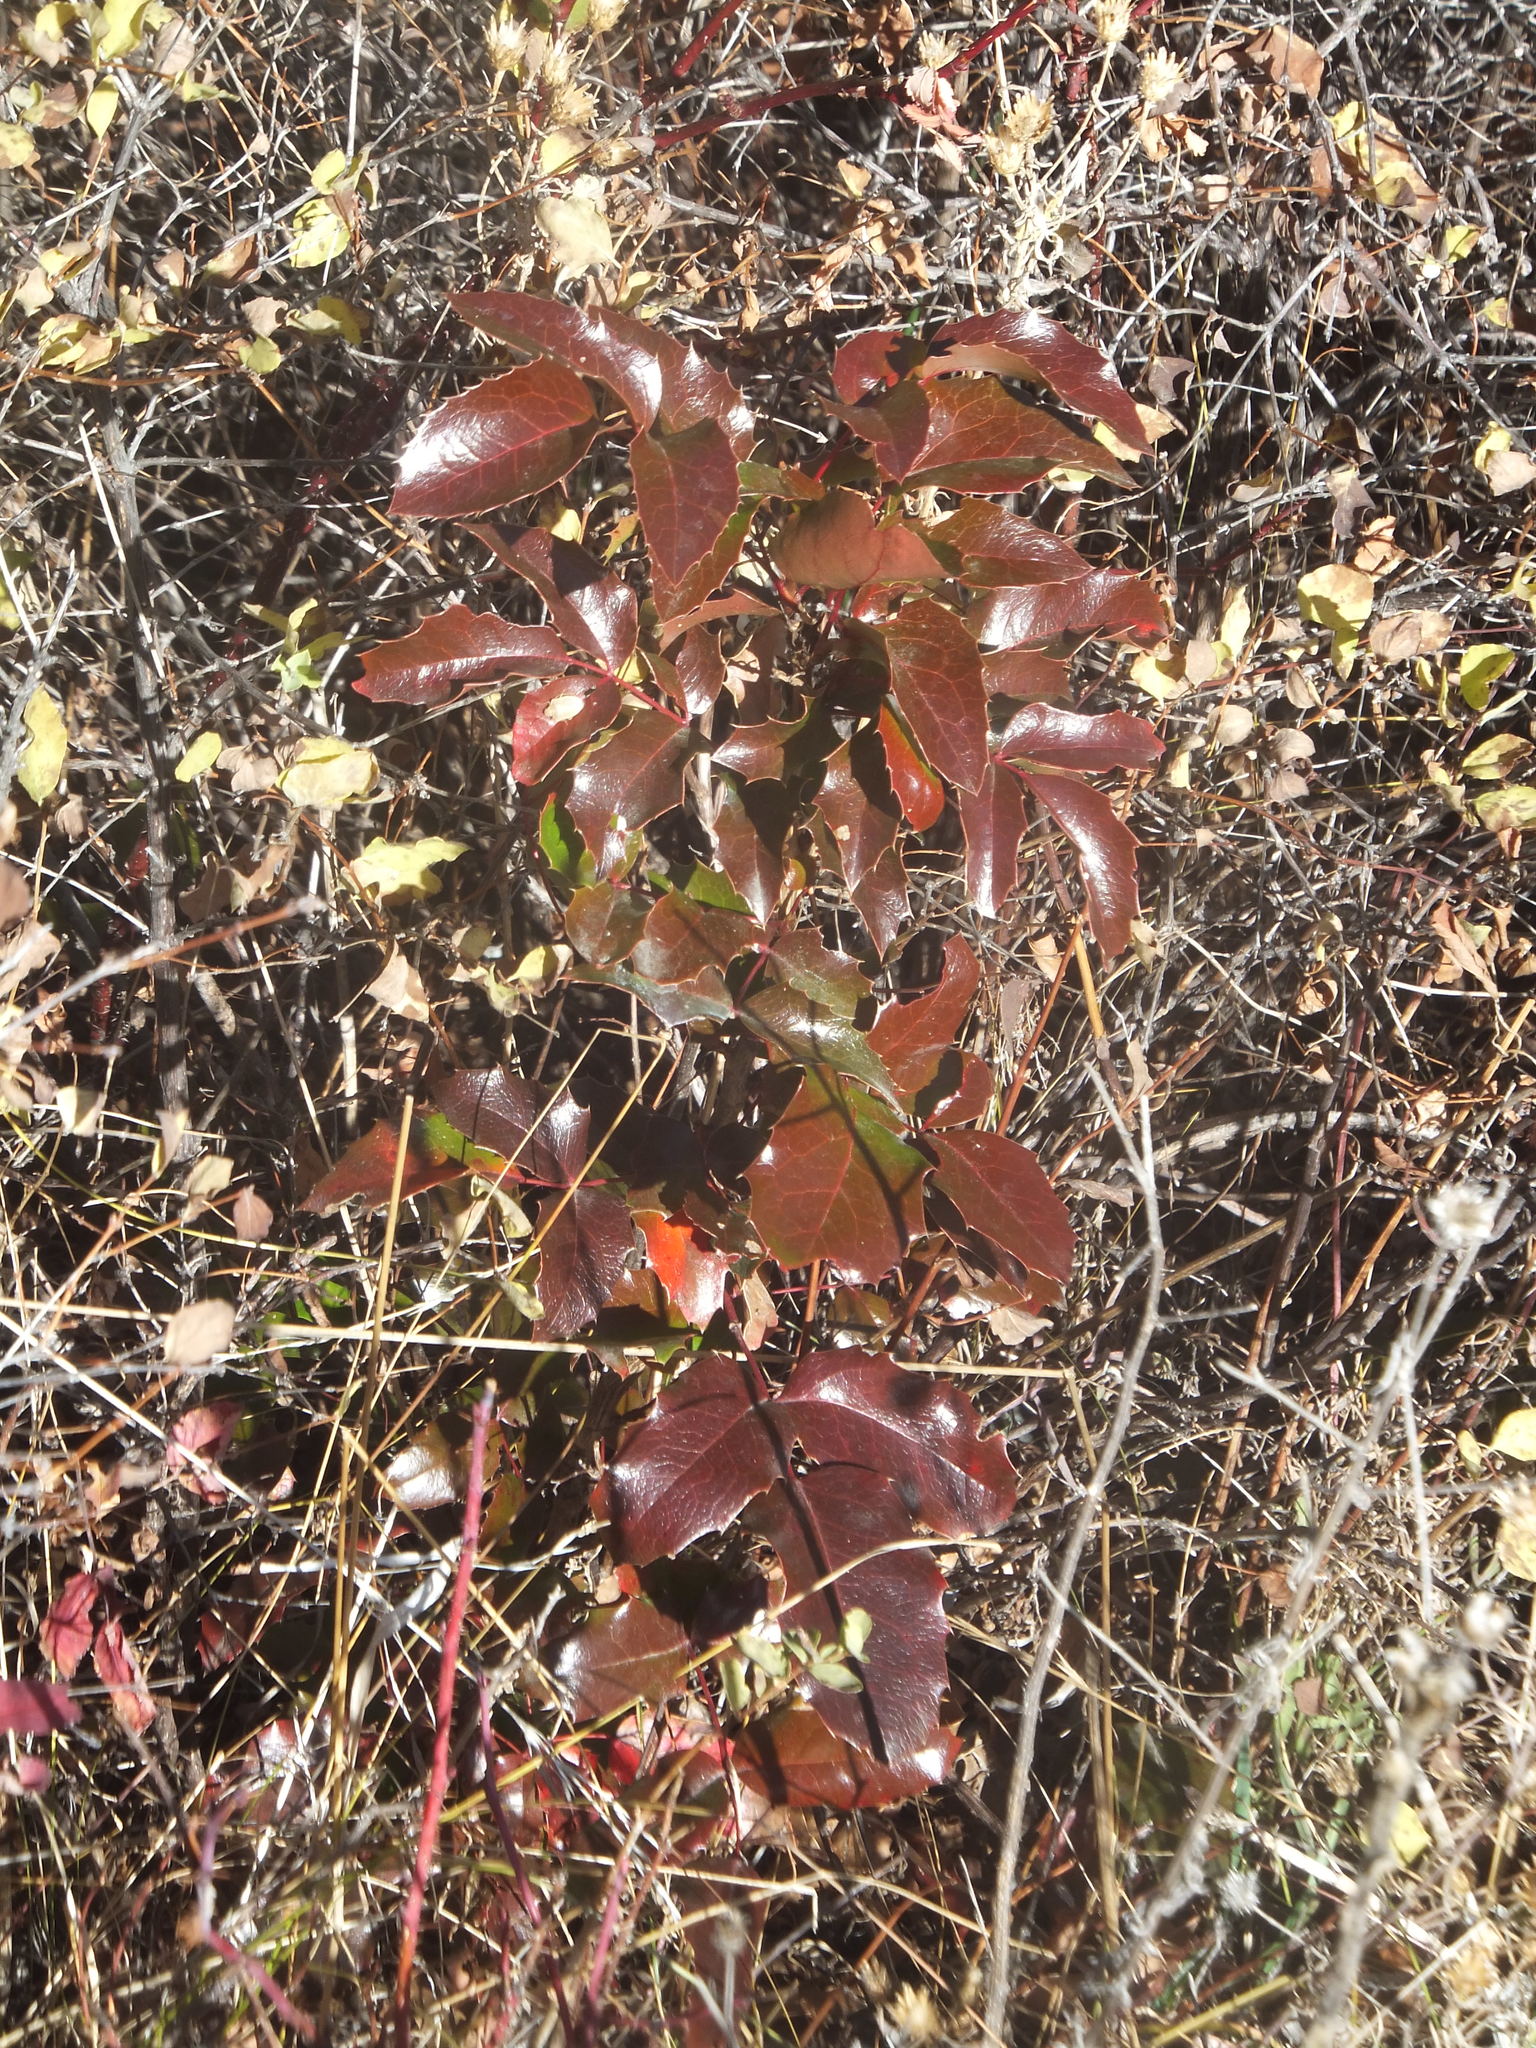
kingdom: Plantae
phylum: Tracheophyta
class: Magnoliopsida
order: Ranunculales
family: Berberidaceae
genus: Mahonia
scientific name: Mahonia aquifolium
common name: Oregon-grape
